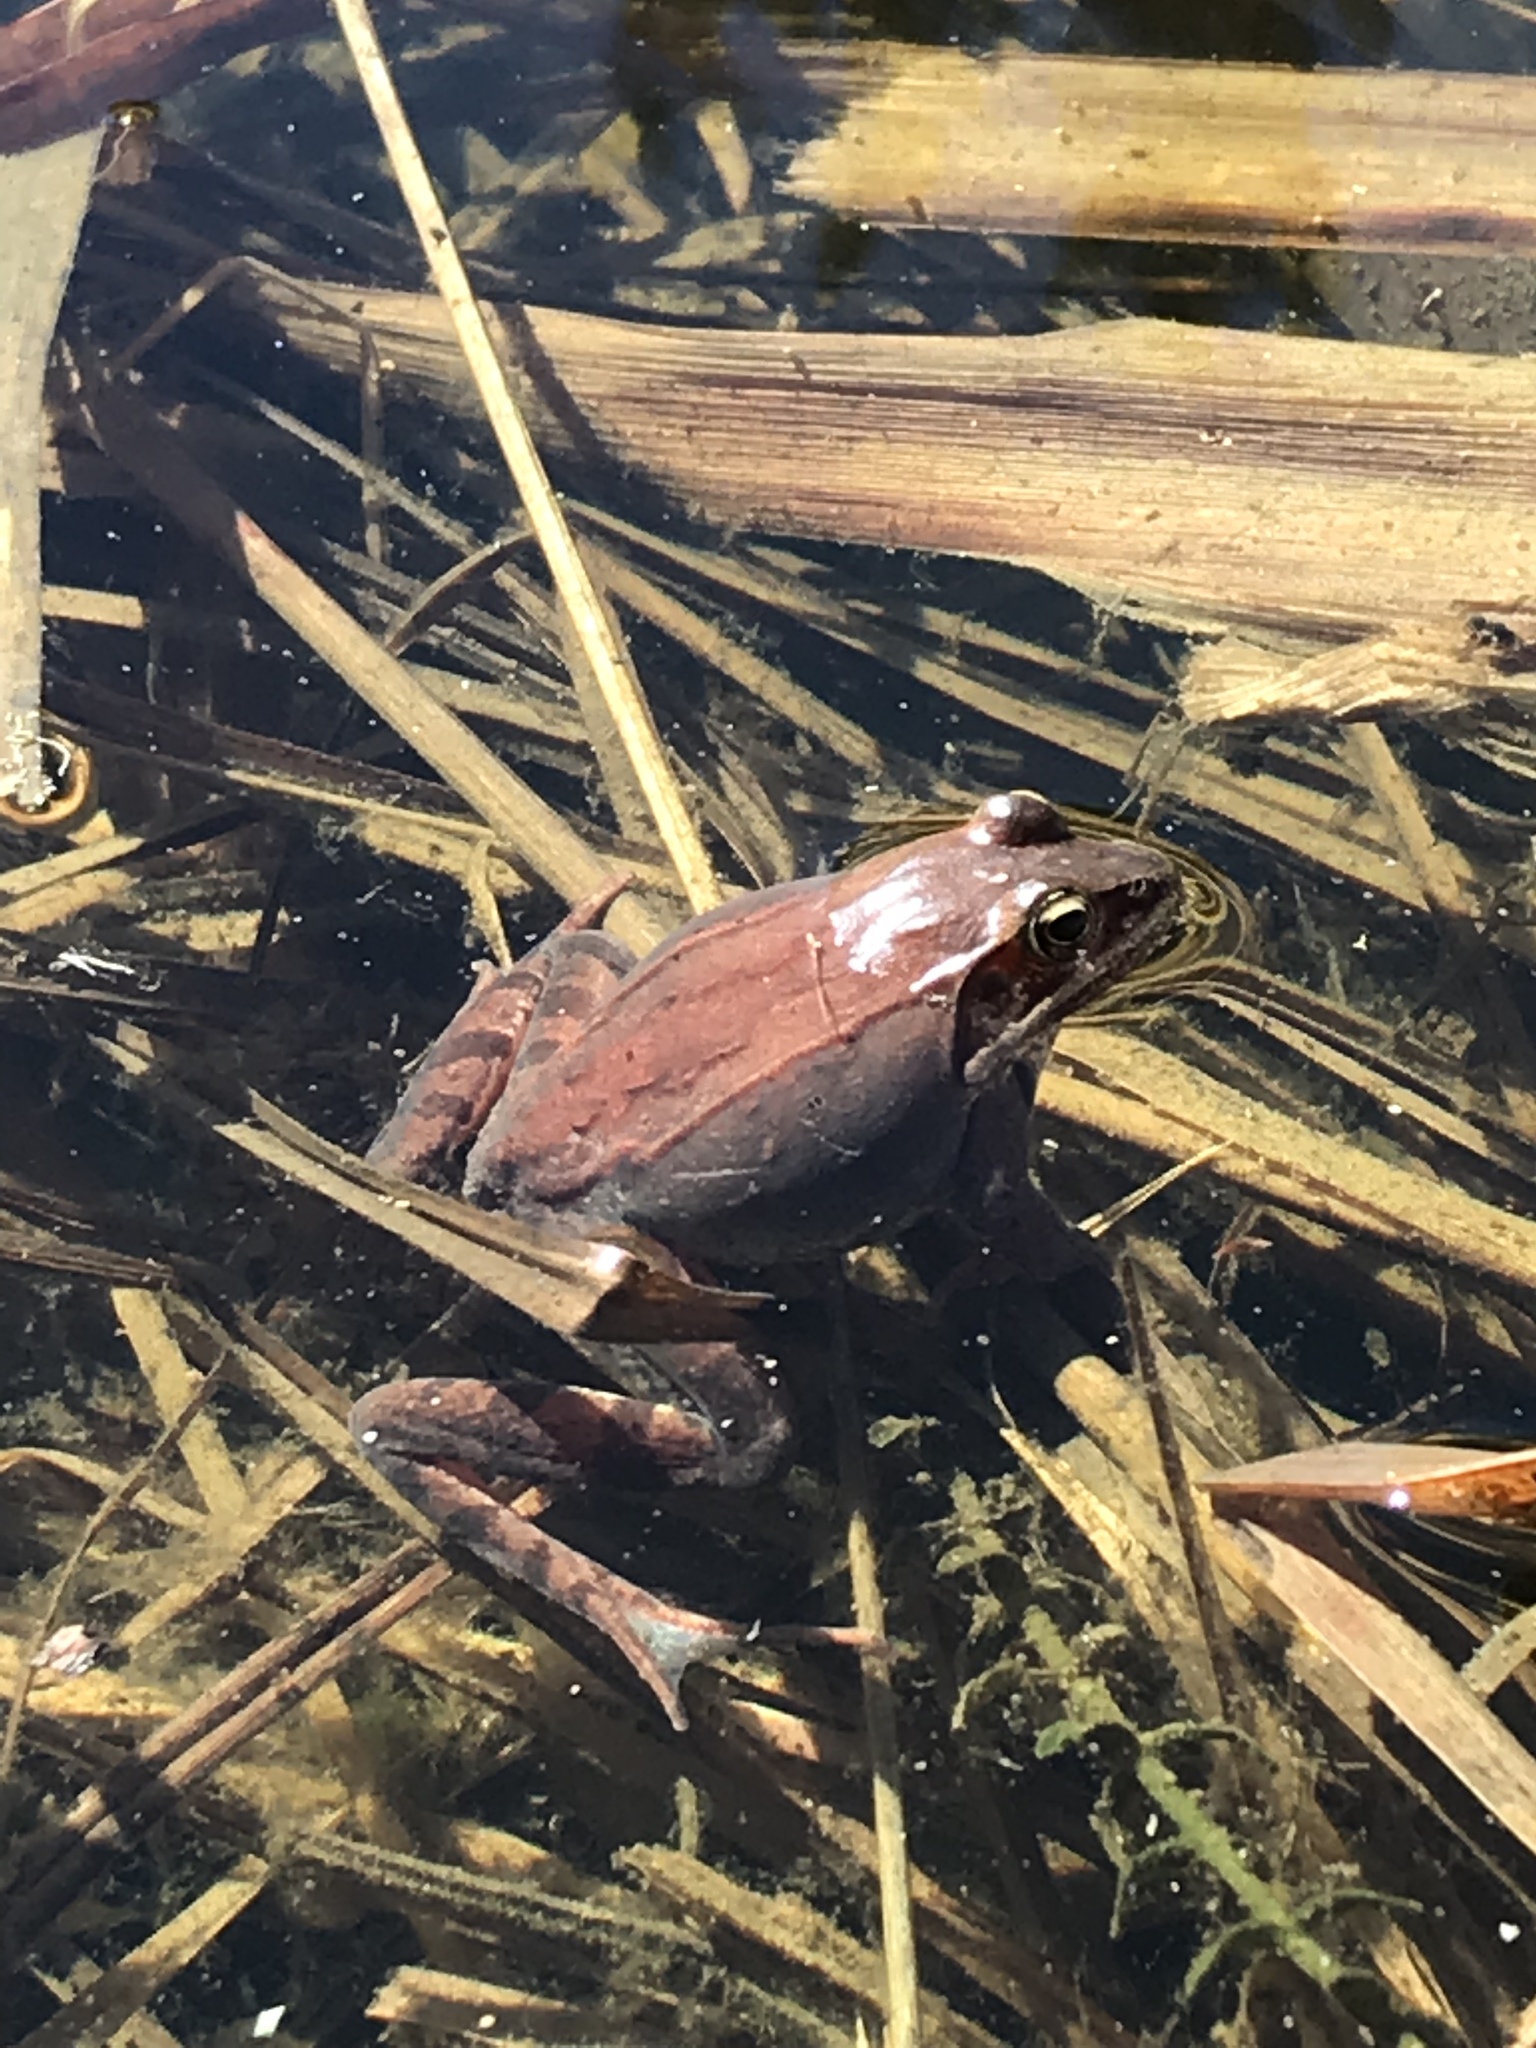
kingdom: Animalia
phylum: Chordata
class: Amphibia
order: Anura
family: Ranidae
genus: Lithobates
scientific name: Lithobates sylvaticus
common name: Wood frog
